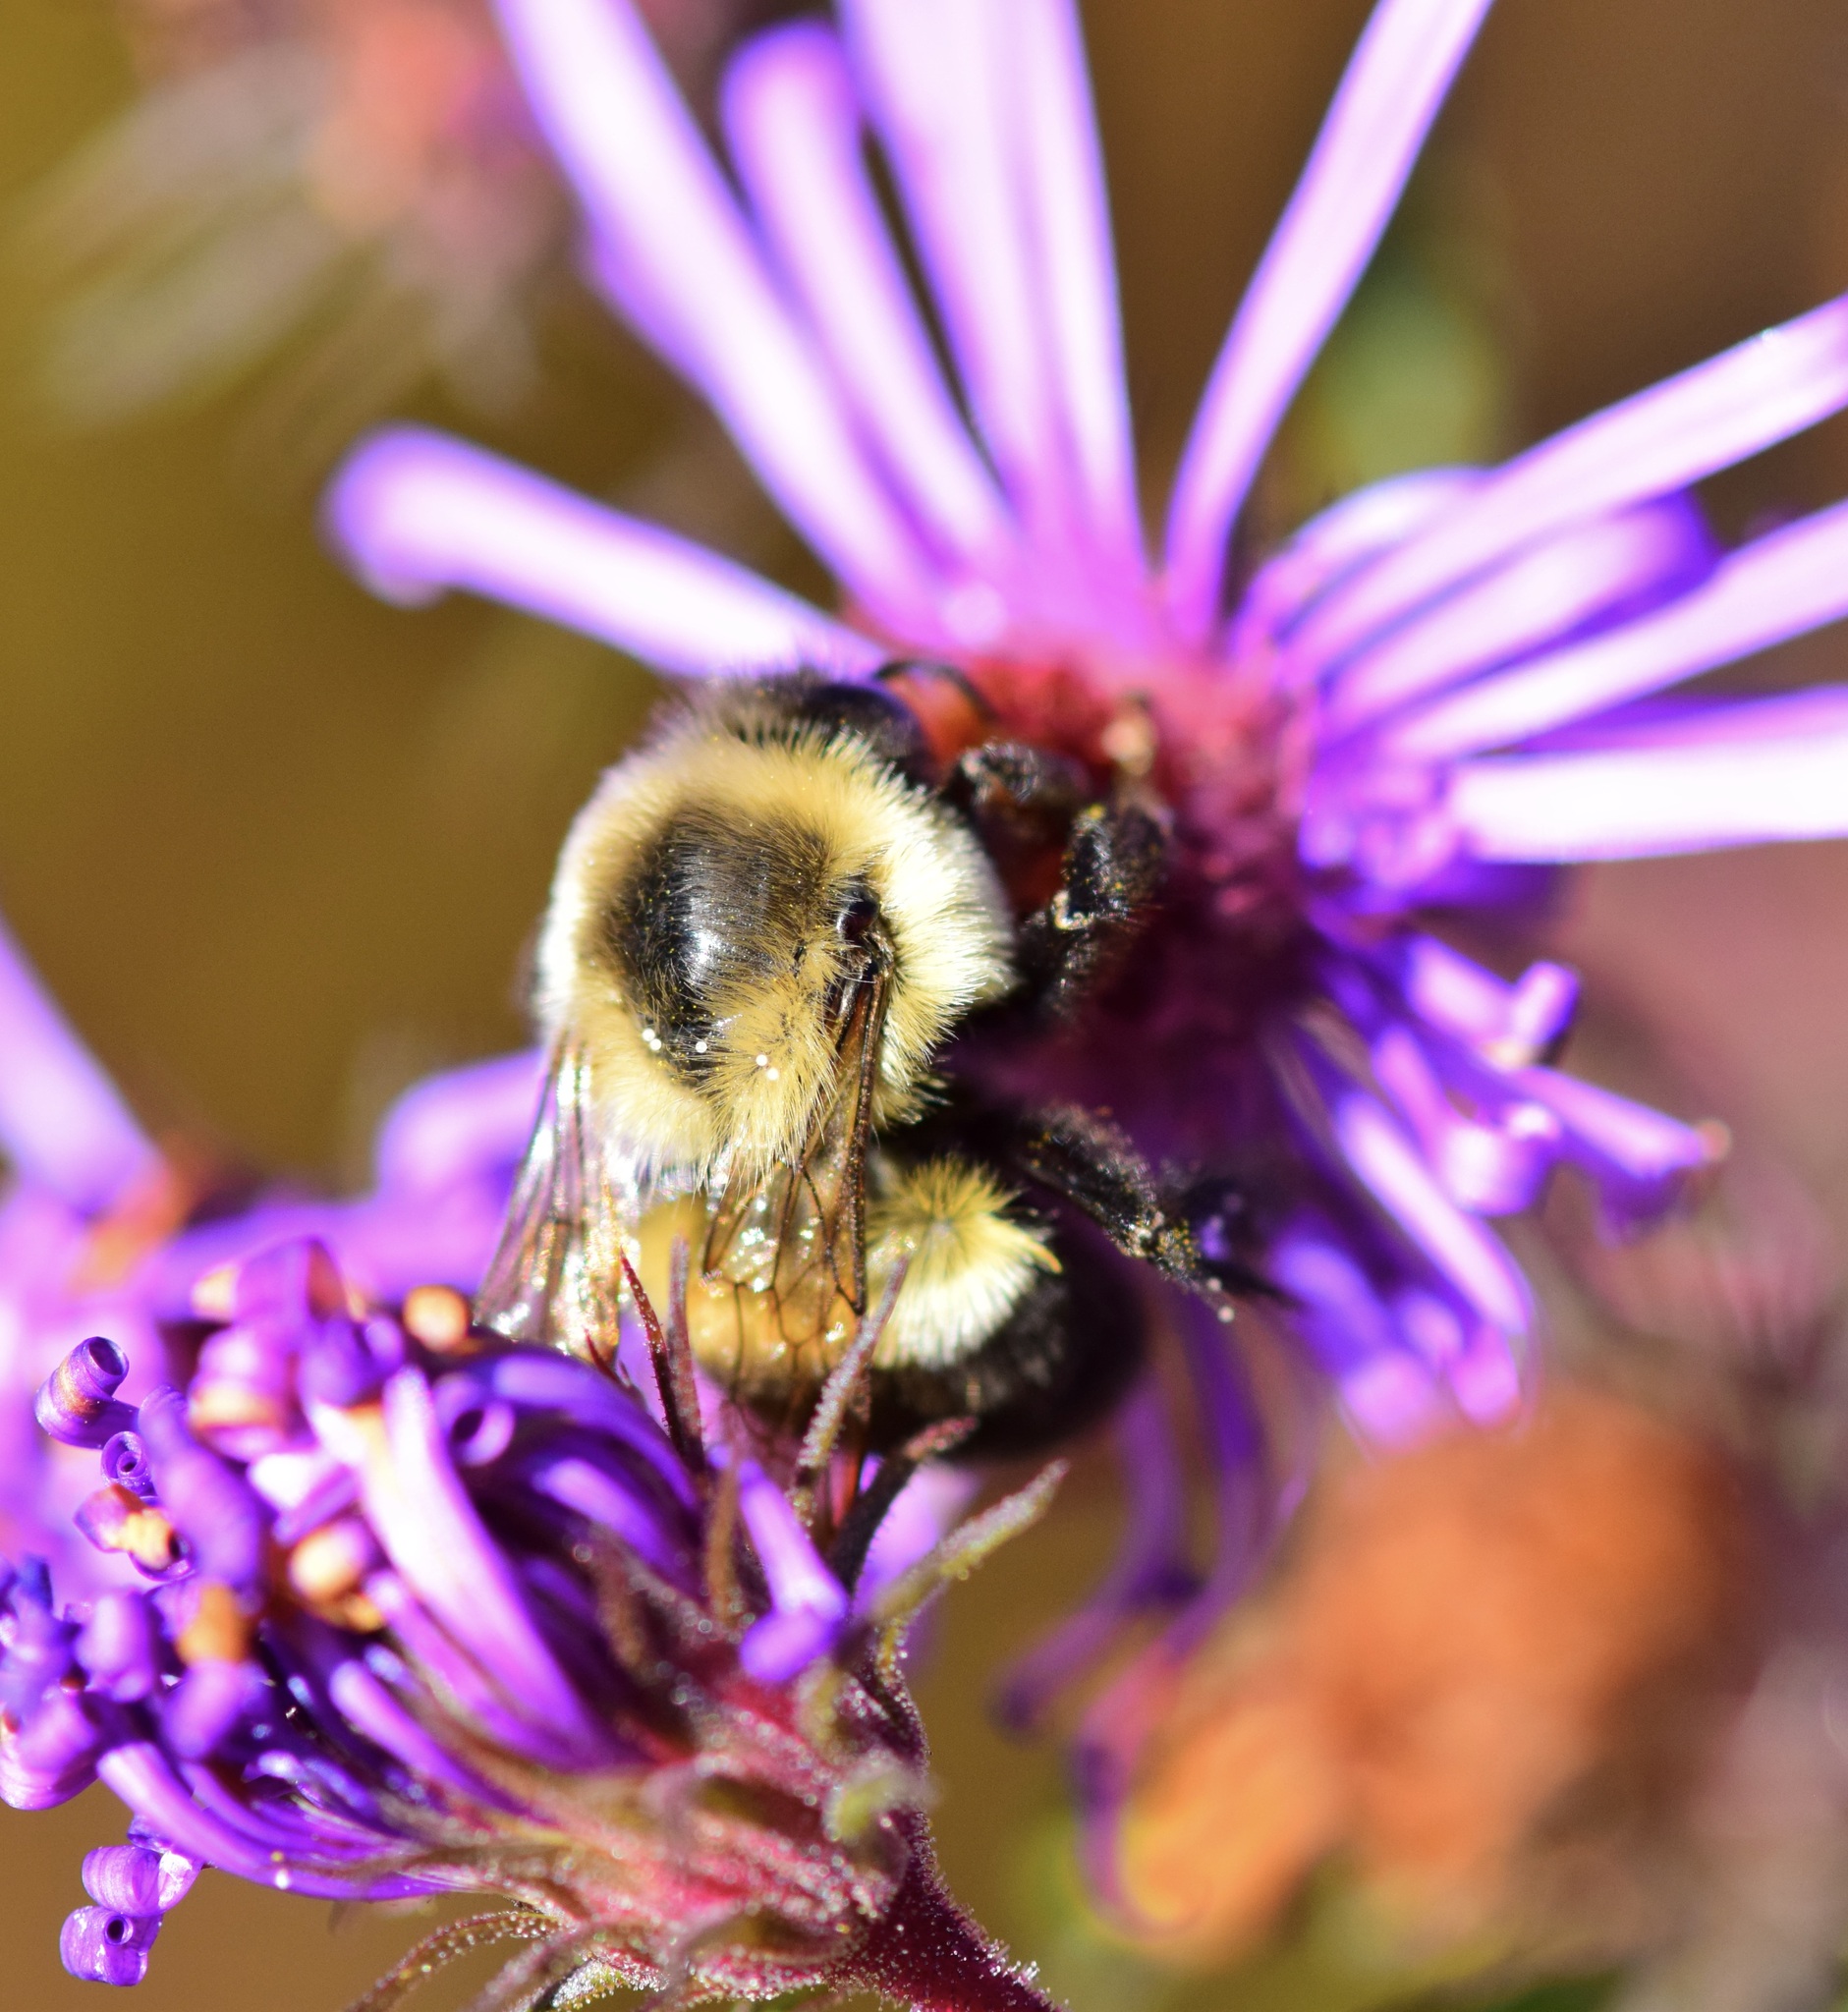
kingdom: Animalia
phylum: Arthropoda
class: Insecta
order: Hymenoptera
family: Apidae
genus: Bombus
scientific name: Bombus impatiens
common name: Common eastern bumble bee
